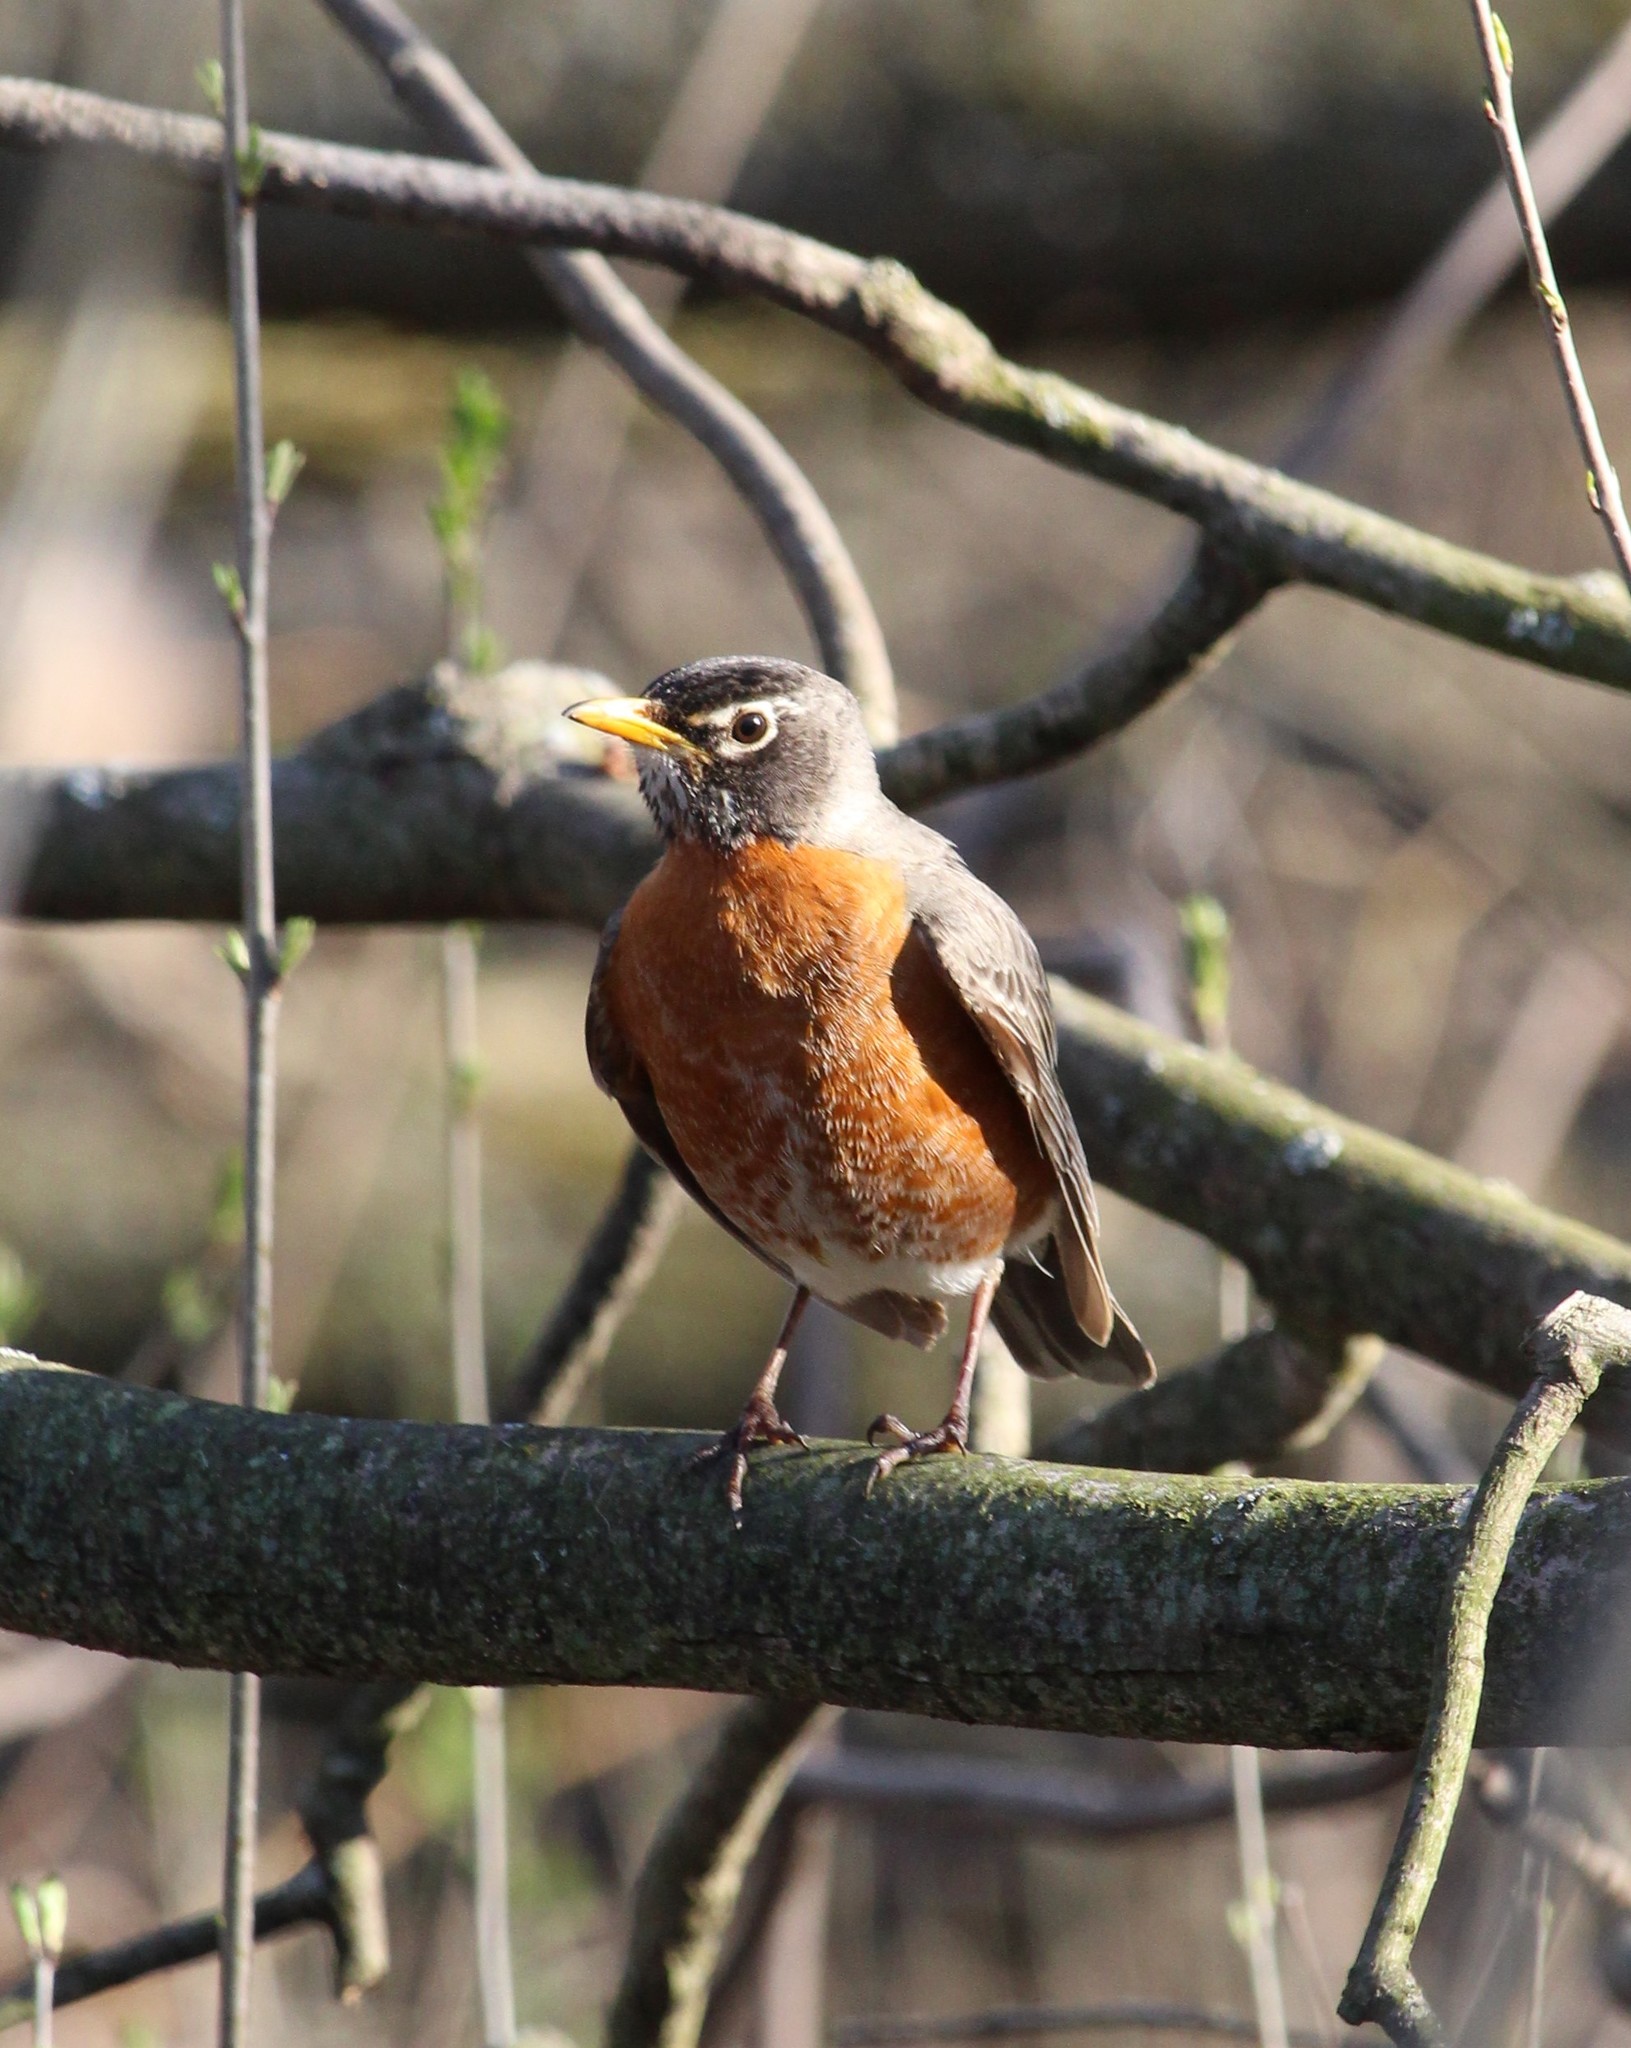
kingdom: Animalia
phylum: Chordata
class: Aves
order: Passeriformes
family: Turdidae
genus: Turdus
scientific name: Turdus migratorius
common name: American robin
